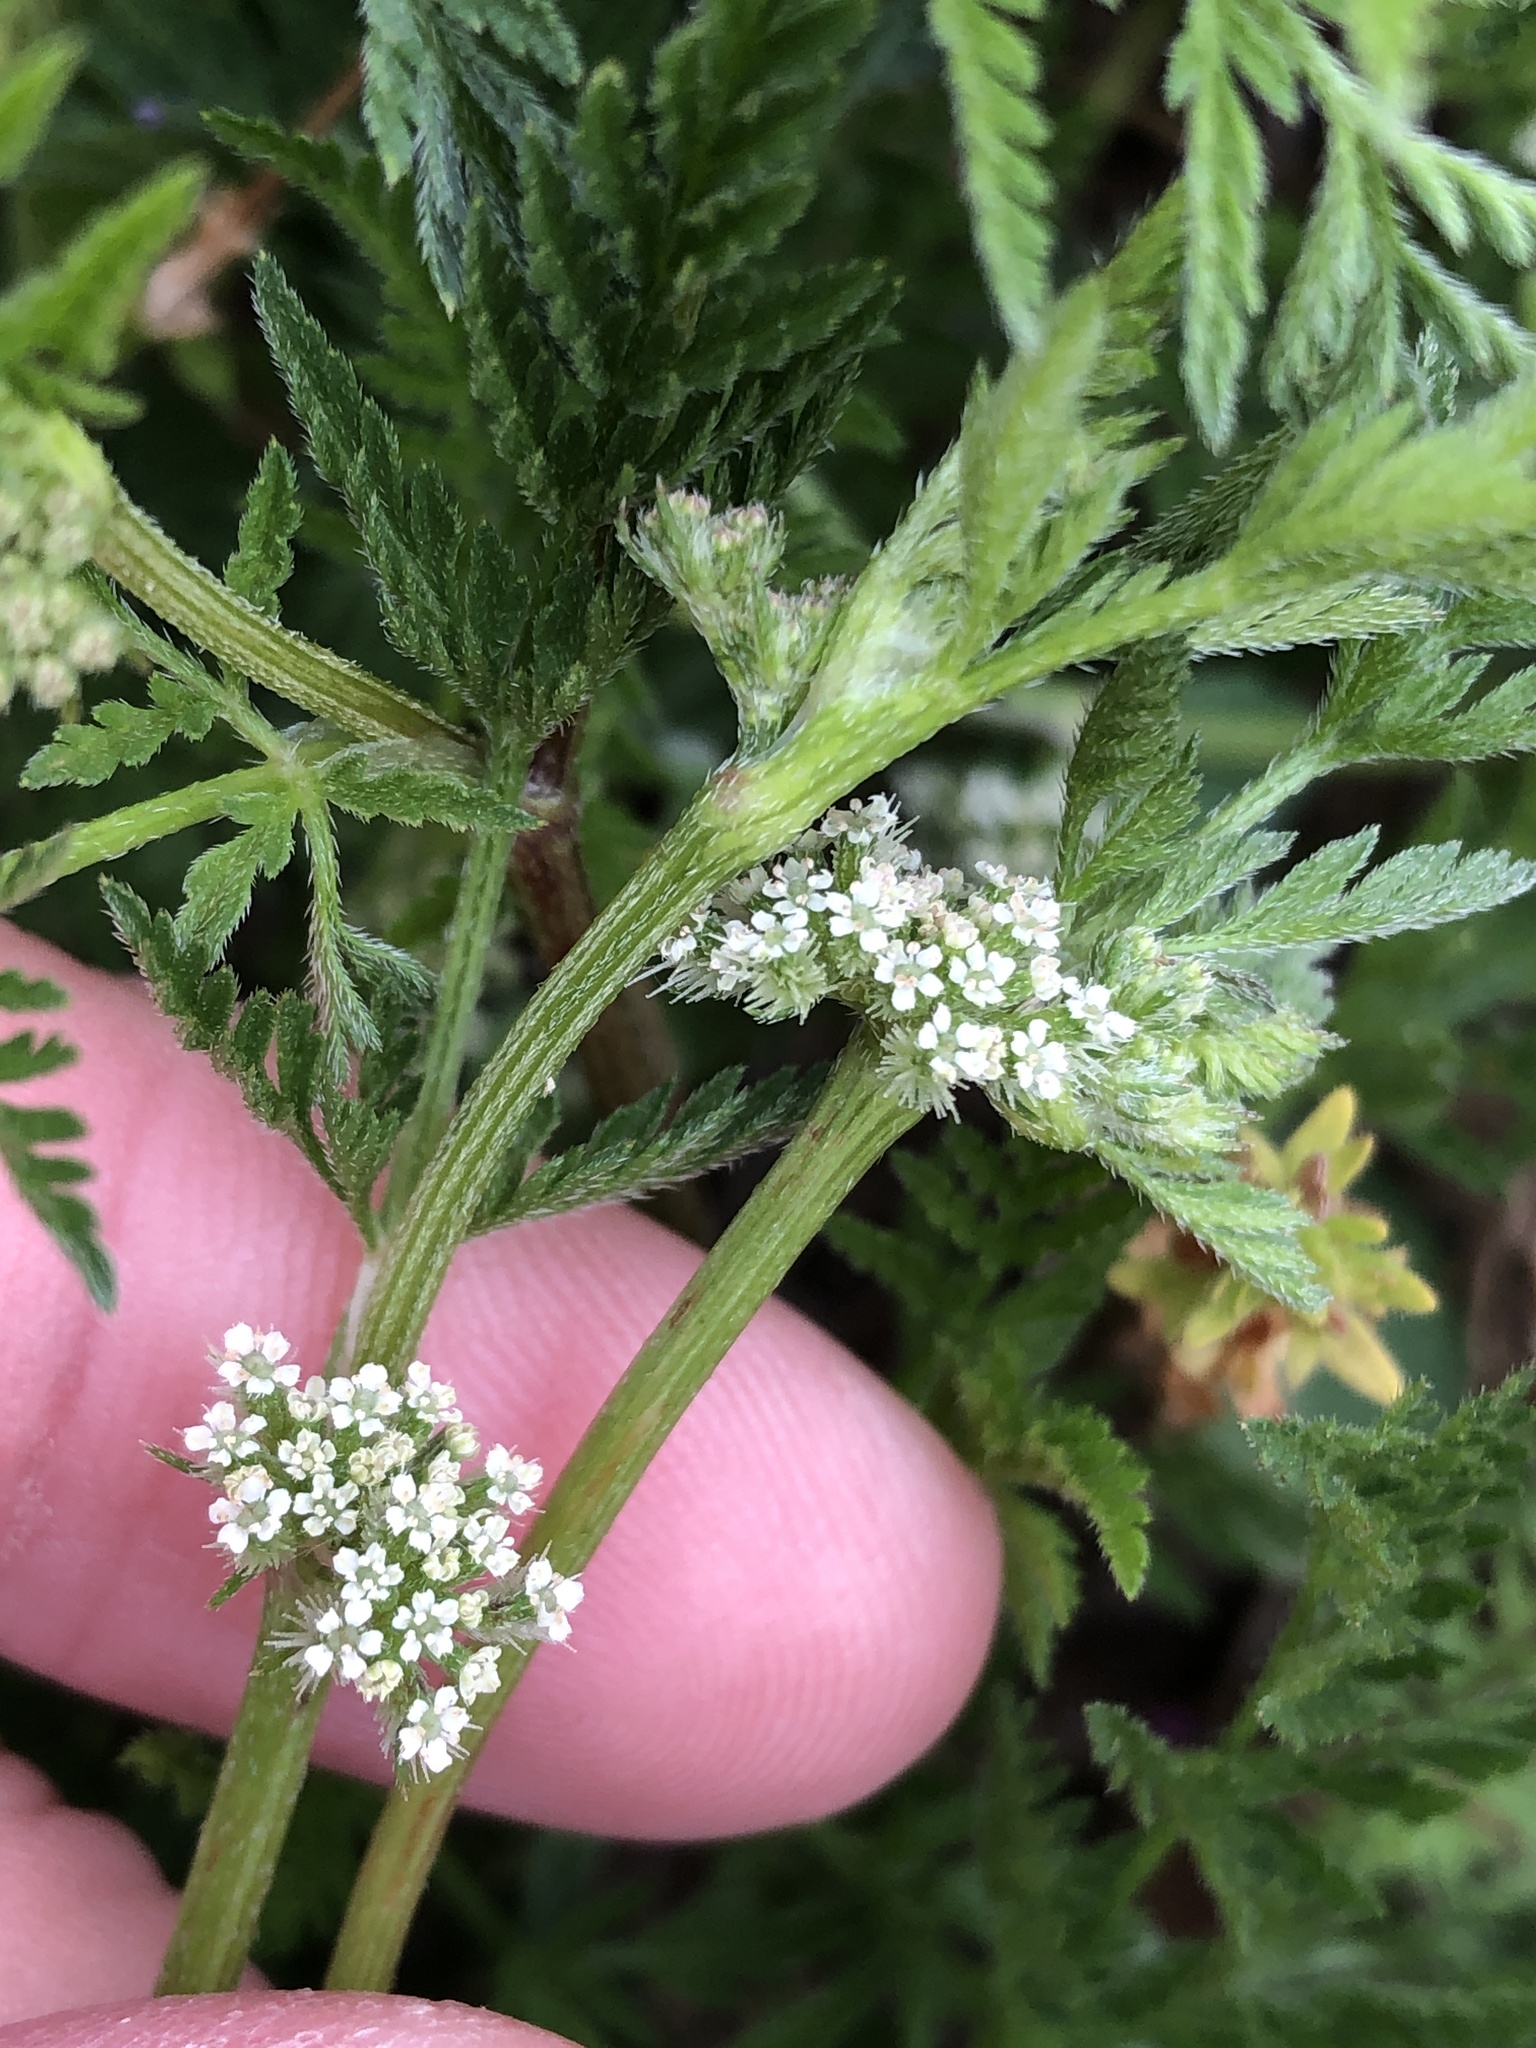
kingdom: Plantae
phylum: Tracheophyta
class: Magnoliopsida
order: Apiales
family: Apiaceae
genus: Torilis
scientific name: Torilis nodosa
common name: Knotted hedge-parsley
